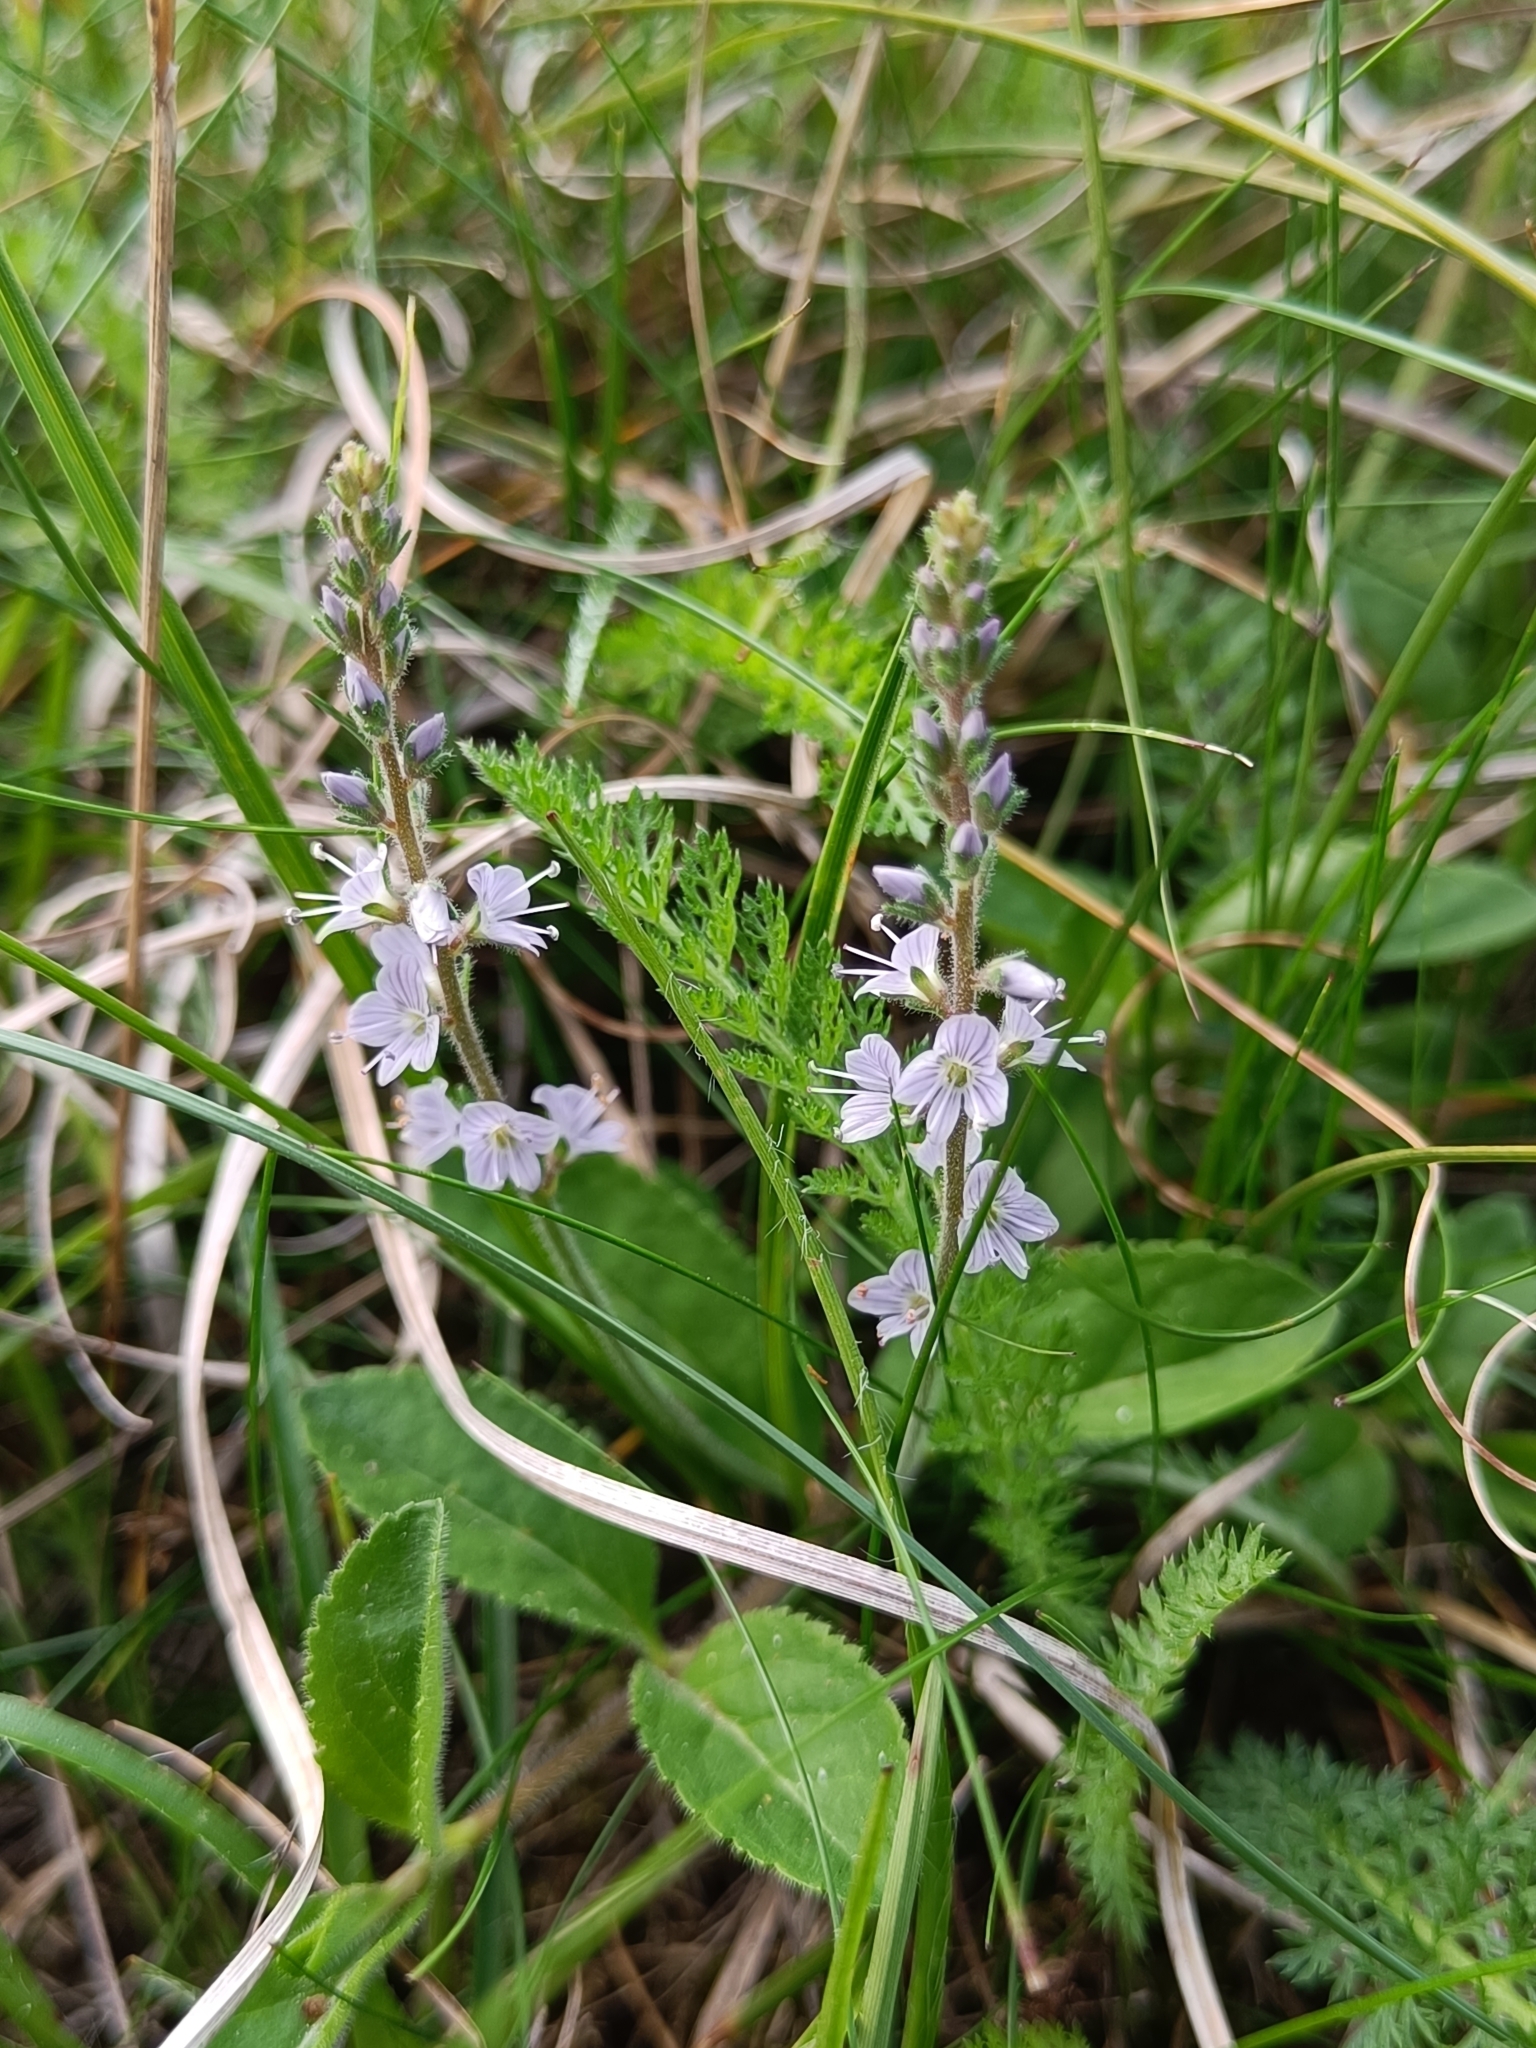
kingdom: Plantae
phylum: Tracheophyta
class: Magnoliopsida
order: Lamiales
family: Plantaginaceae
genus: Veronica
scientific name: Veronica officinalis
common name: Common speedwell
